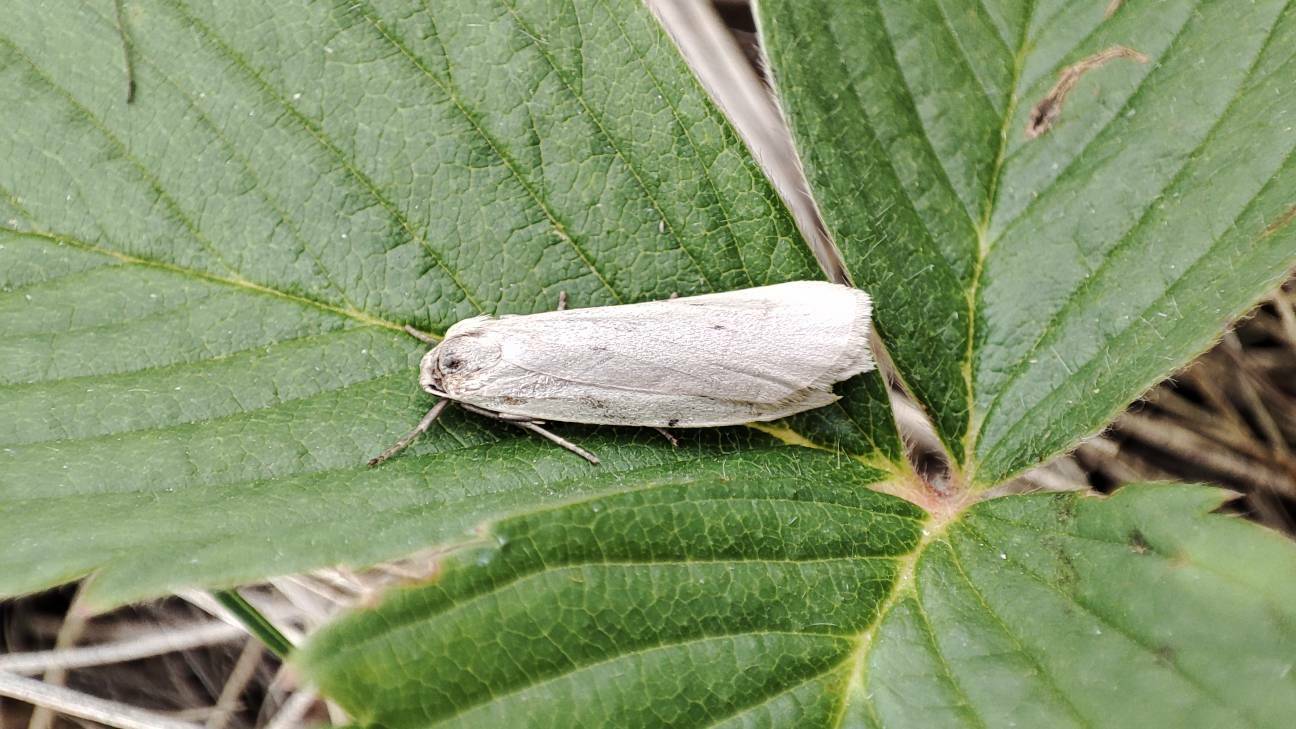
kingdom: Animalia
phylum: Arthropoda
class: Insecta
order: Lepidoptera
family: Erebidae
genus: Pelosia
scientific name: Pelosia muscerda
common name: Dotted footman
